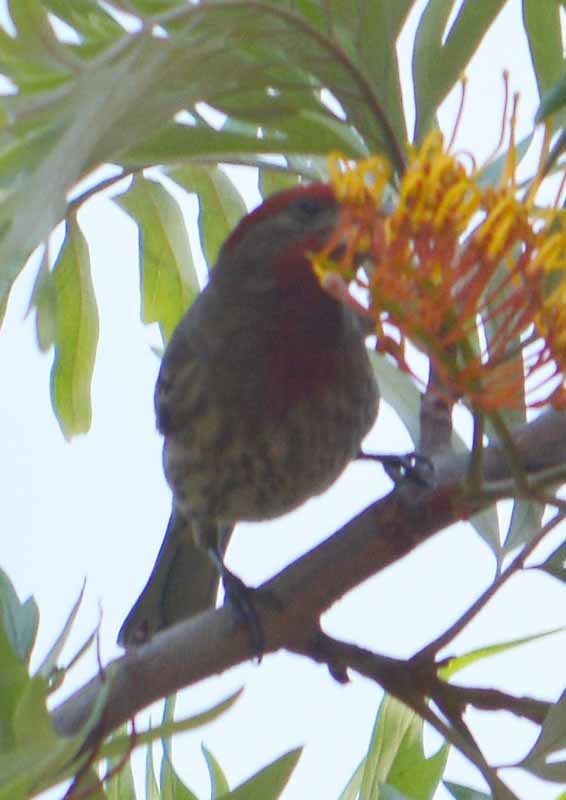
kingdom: Animalia
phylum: Chordata
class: Aves
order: Passeriformes
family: Fringillidae
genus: Haemorhous
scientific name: Haemorhous mexicanus
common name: House finch
